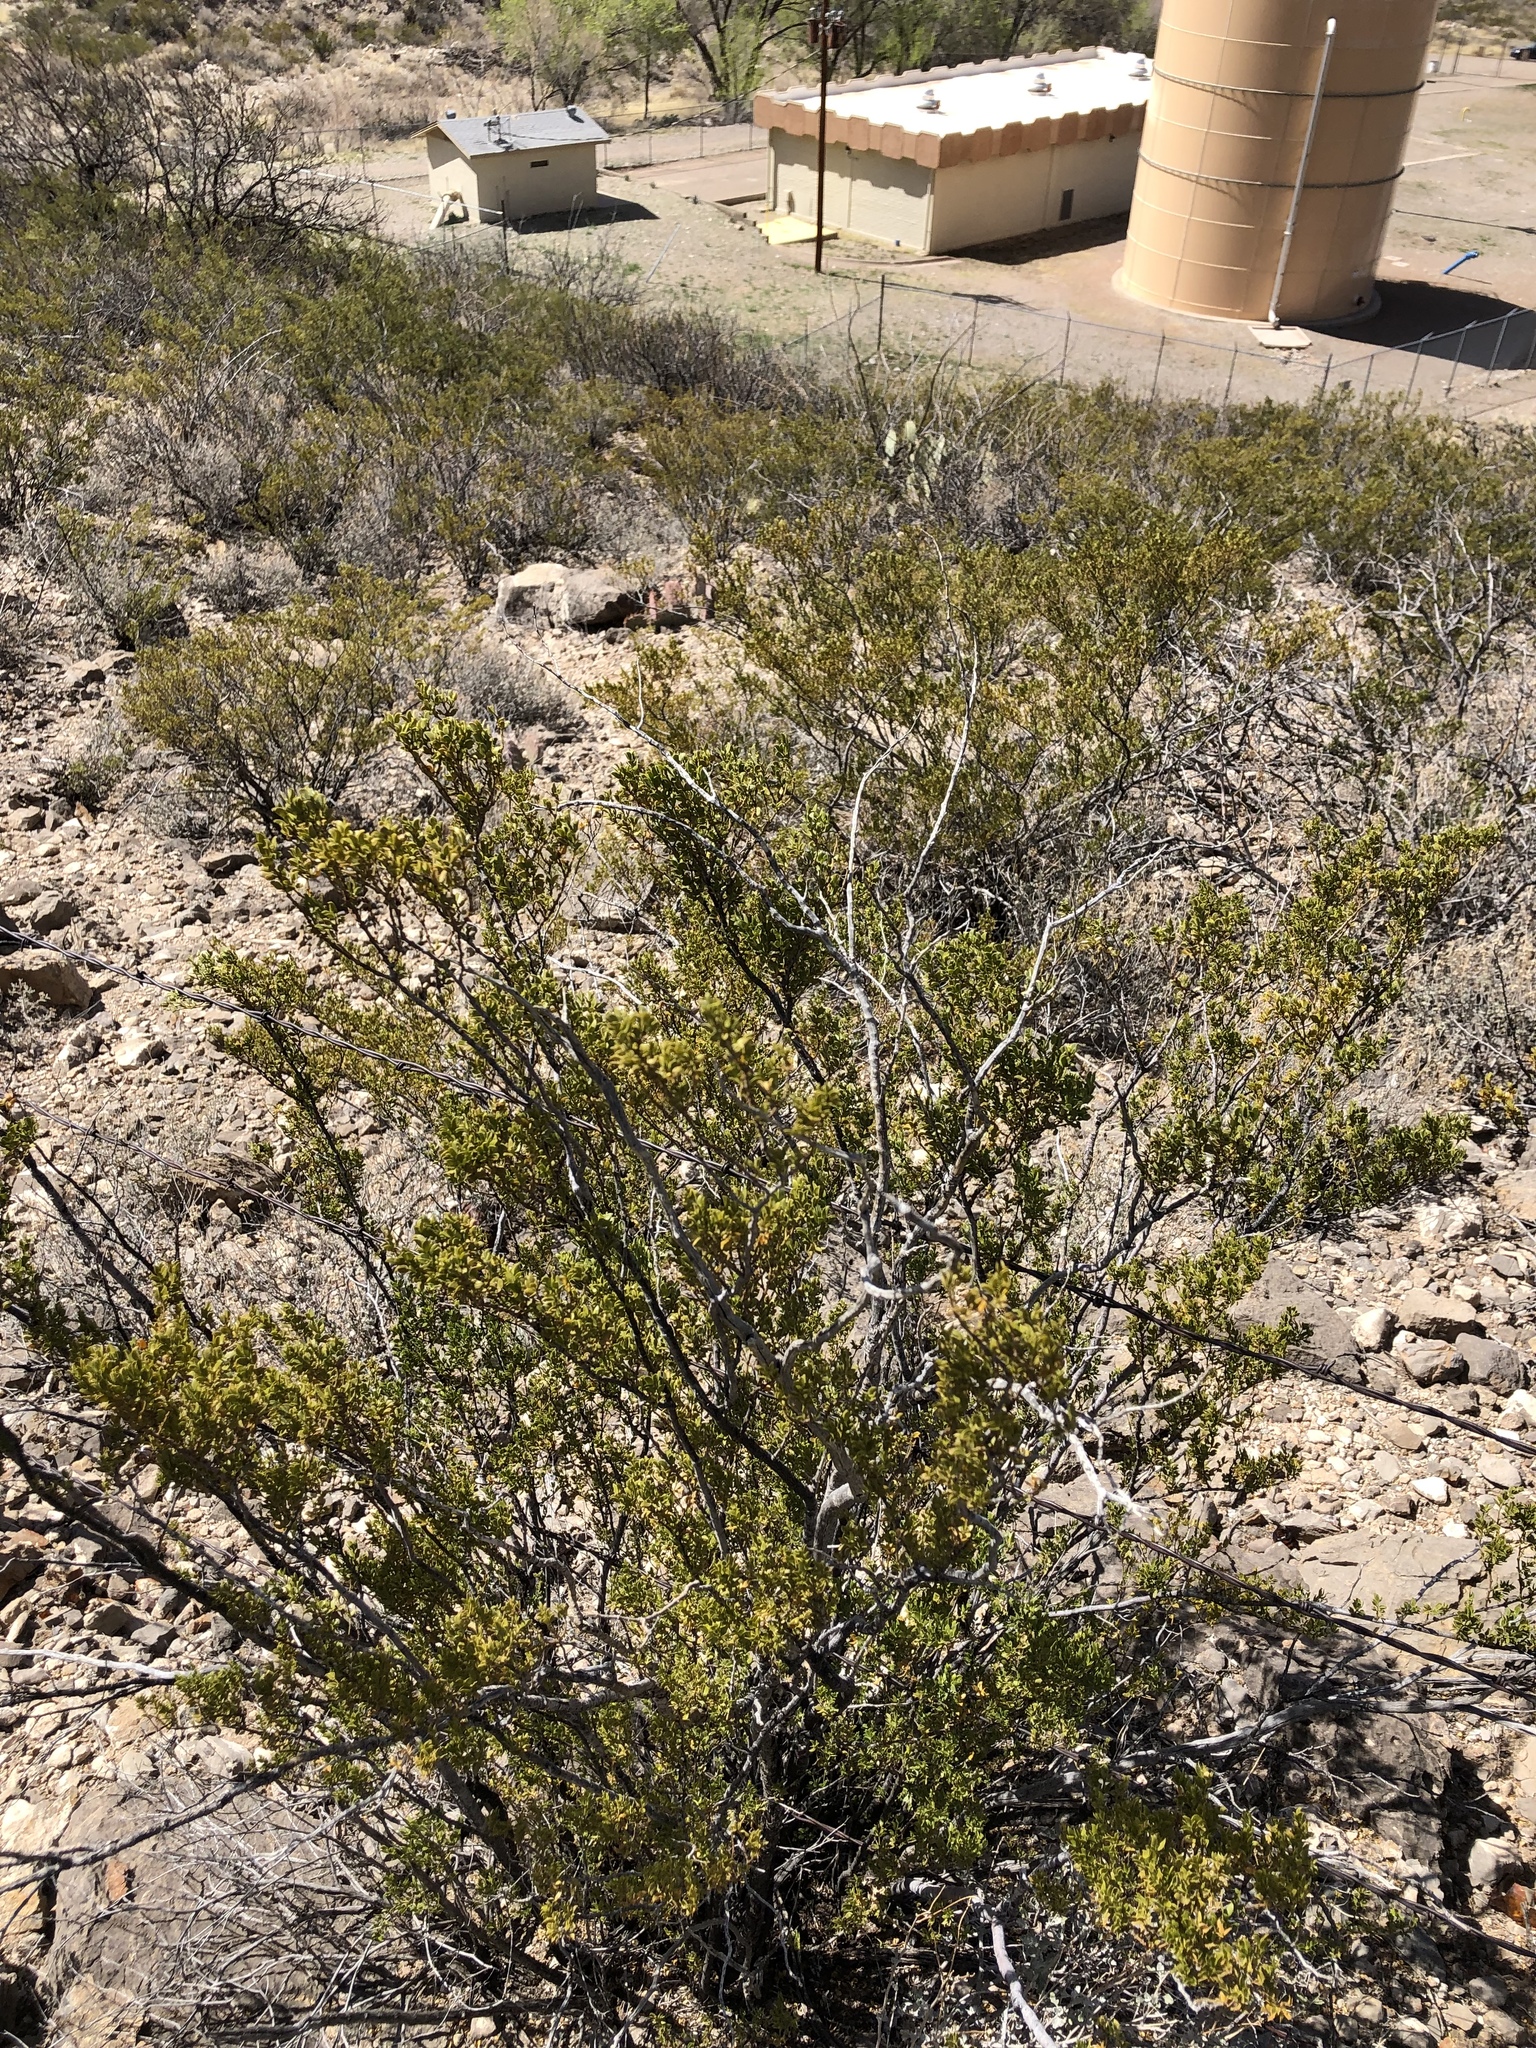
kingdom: Plantae
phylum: Tracheophyta
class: Magnoliopsida
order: Zygophyllales
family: Zygophyllaceae
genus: Larrea
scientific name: Larrea tridentata
